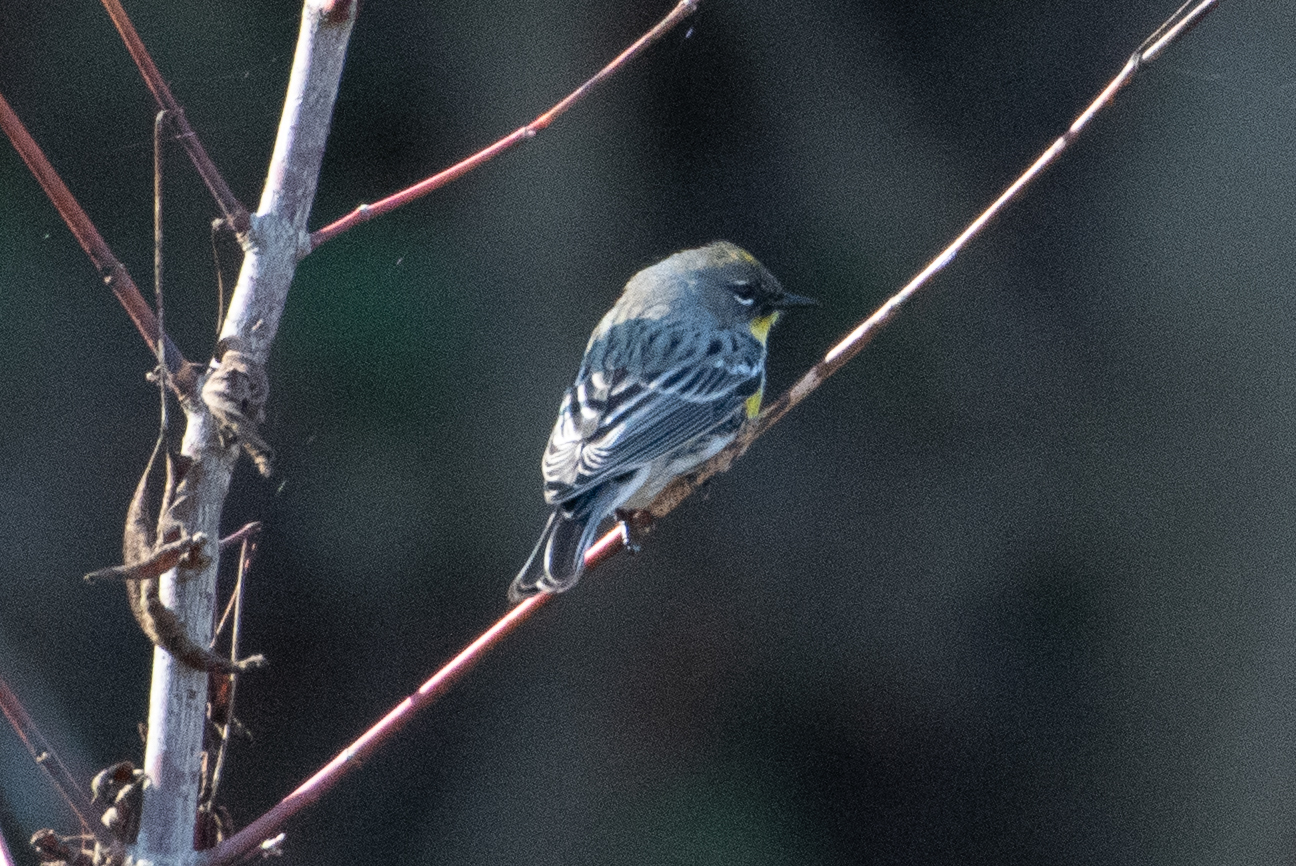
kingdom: Animalia
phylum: Chordata
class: Aves
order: Passeriformes
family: Parulidae
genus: Setophaga
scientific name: Setophaga coronata
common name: Myrtle warbler
